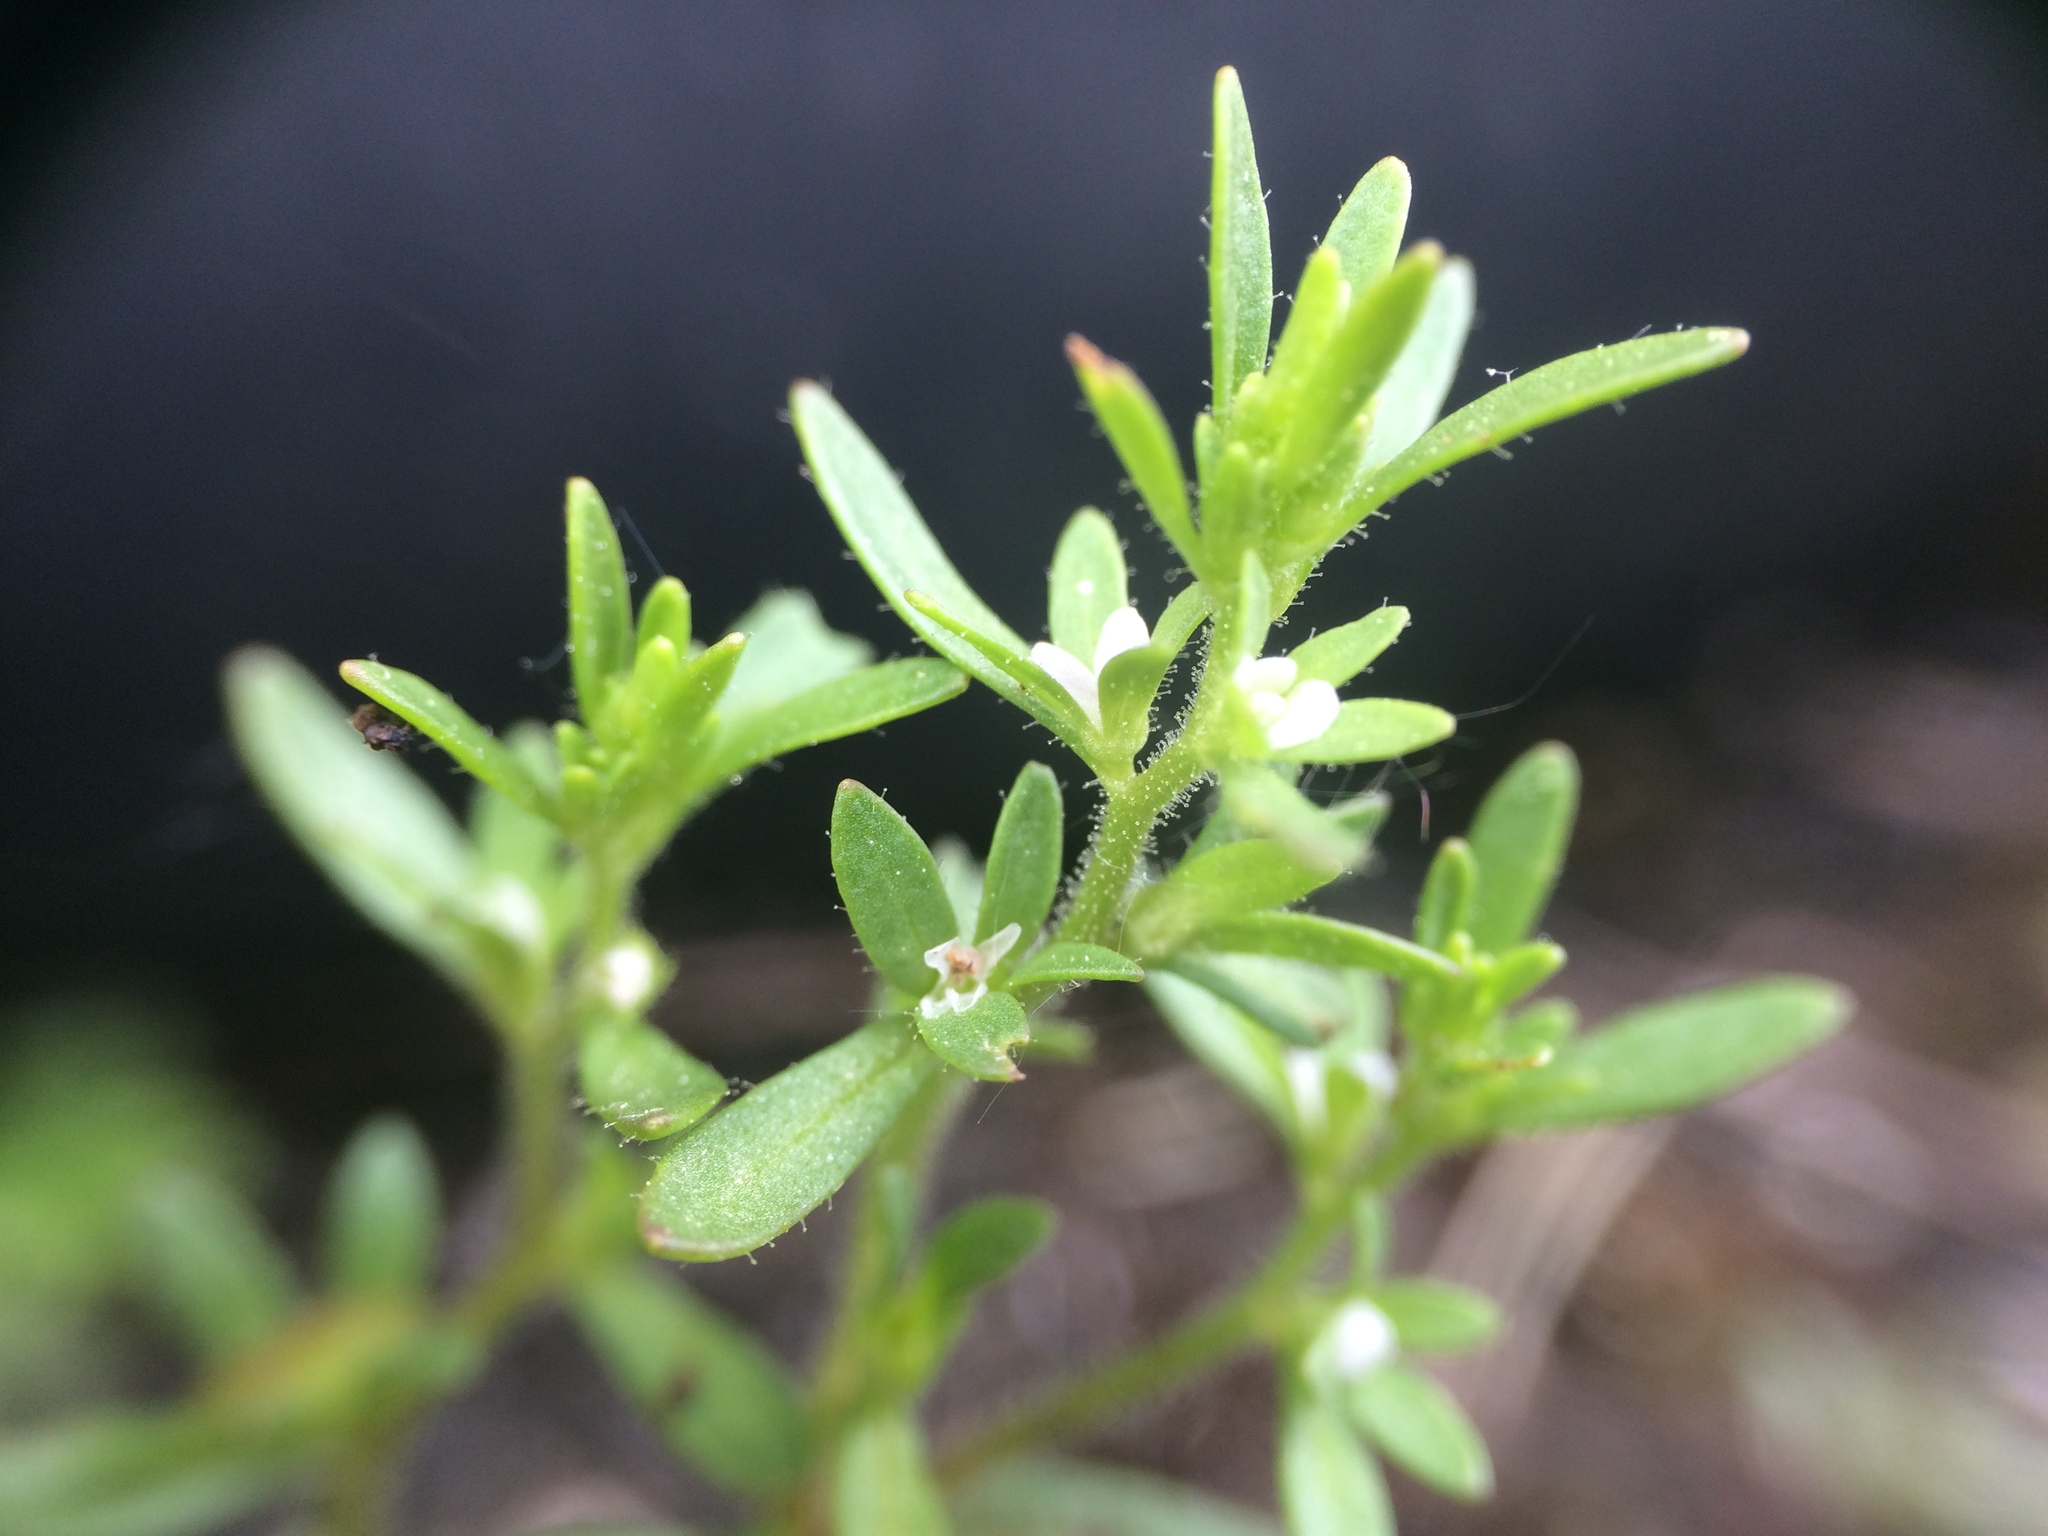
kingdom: Plantae
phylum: Tracheophyta
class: Magnoliopsida
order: Lamiales
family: Plantaginaceae
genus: Veronica
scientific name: Veronica peregrina
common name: Neckweed
